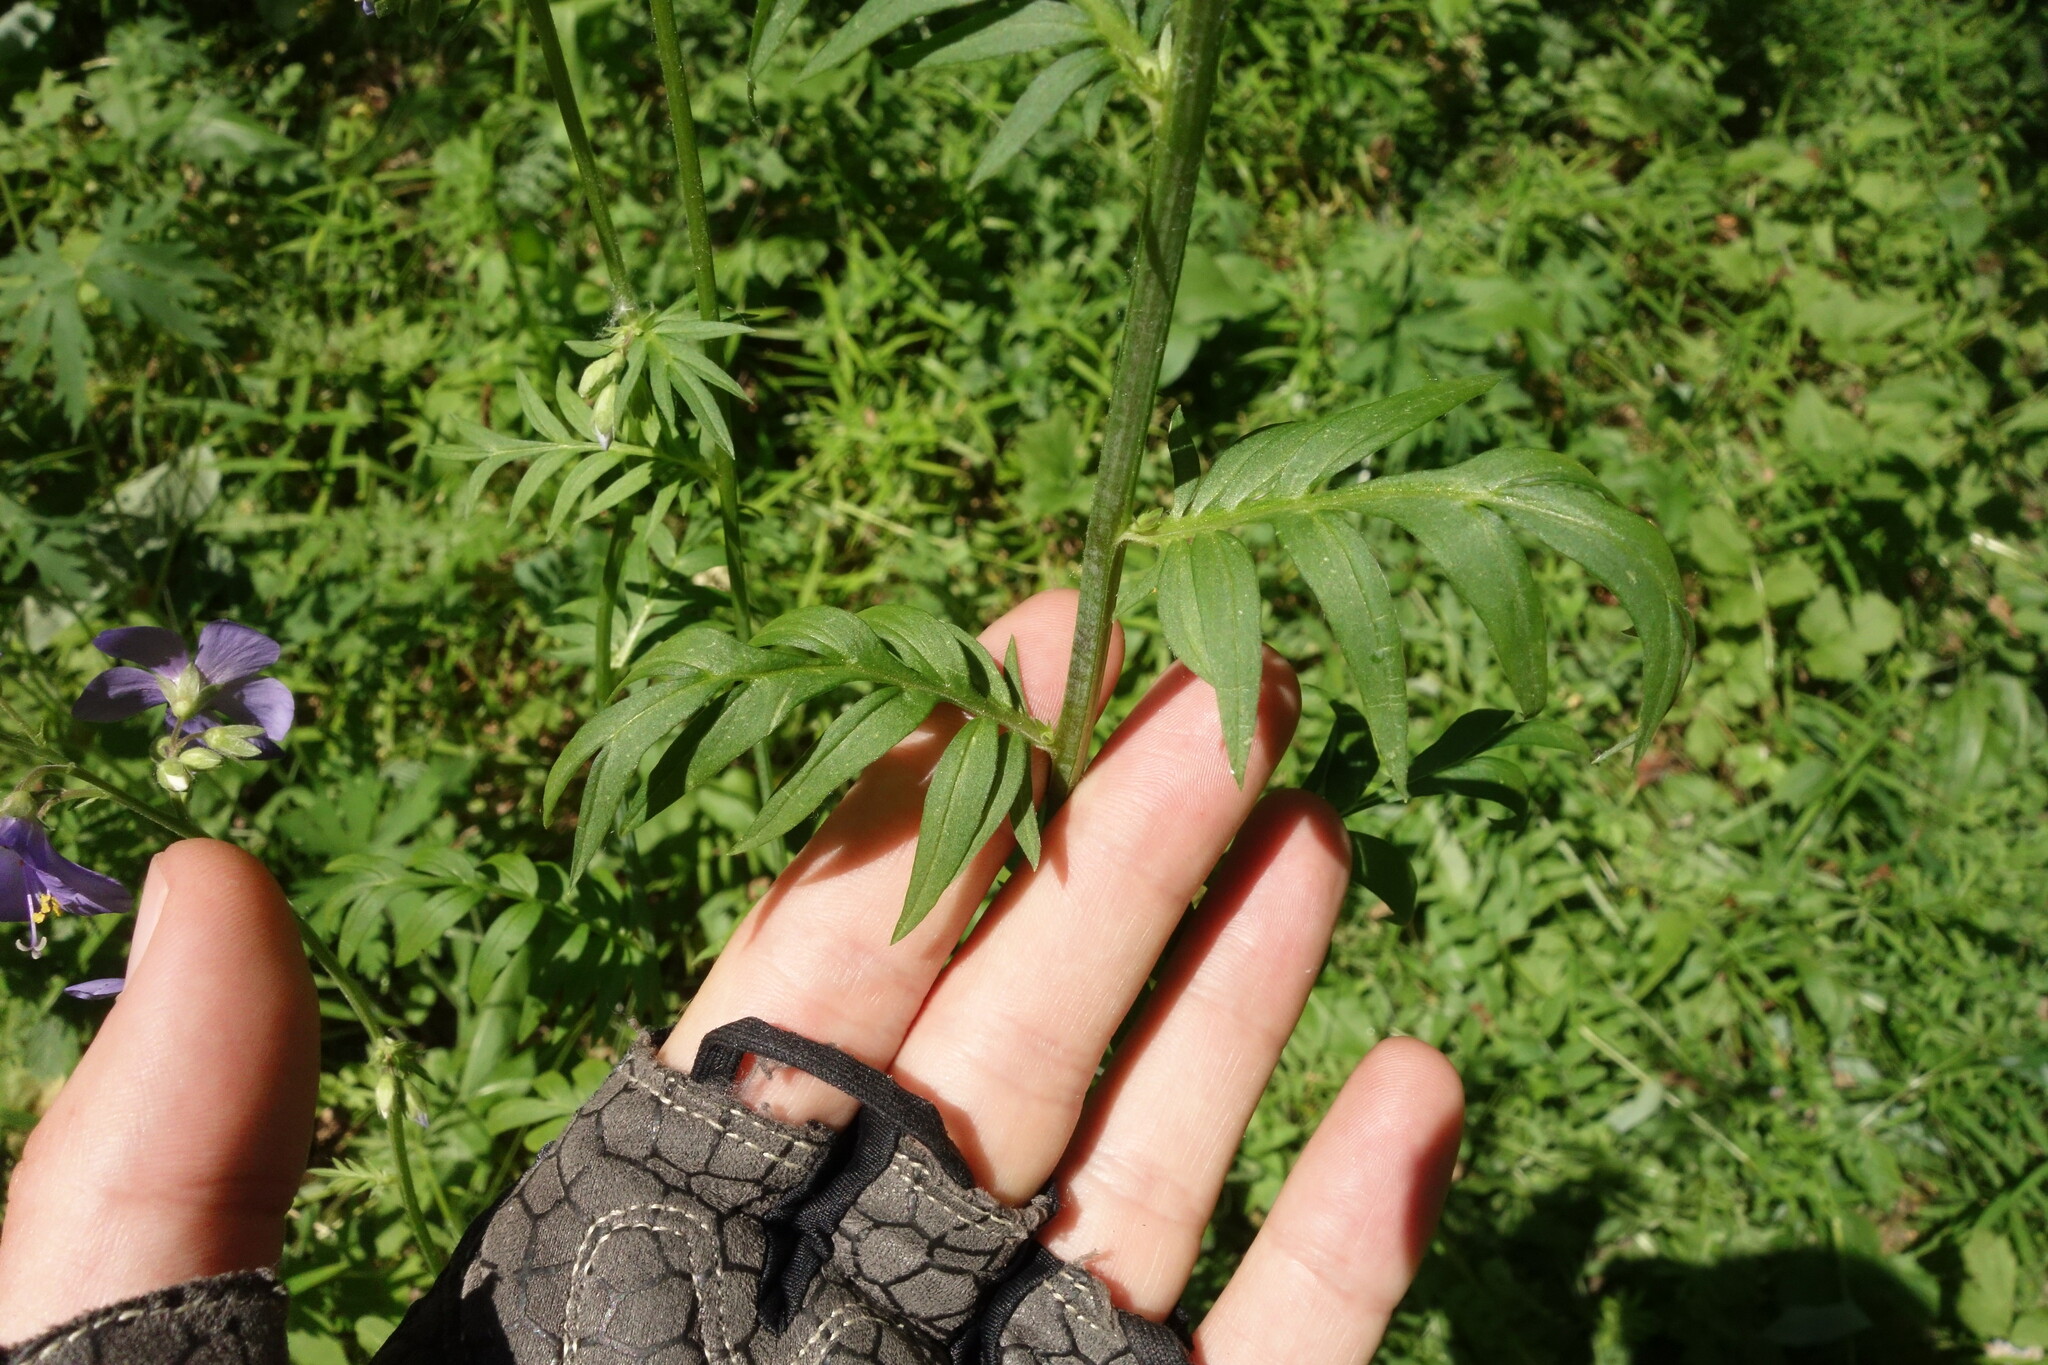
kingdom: Plantae
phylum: Tracheophyta
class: Magnoliopsida
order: Ericales
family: Polemoniaceae
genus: Polemonium
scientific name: Polemonium caeruleum
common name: Jacob's-ladder
